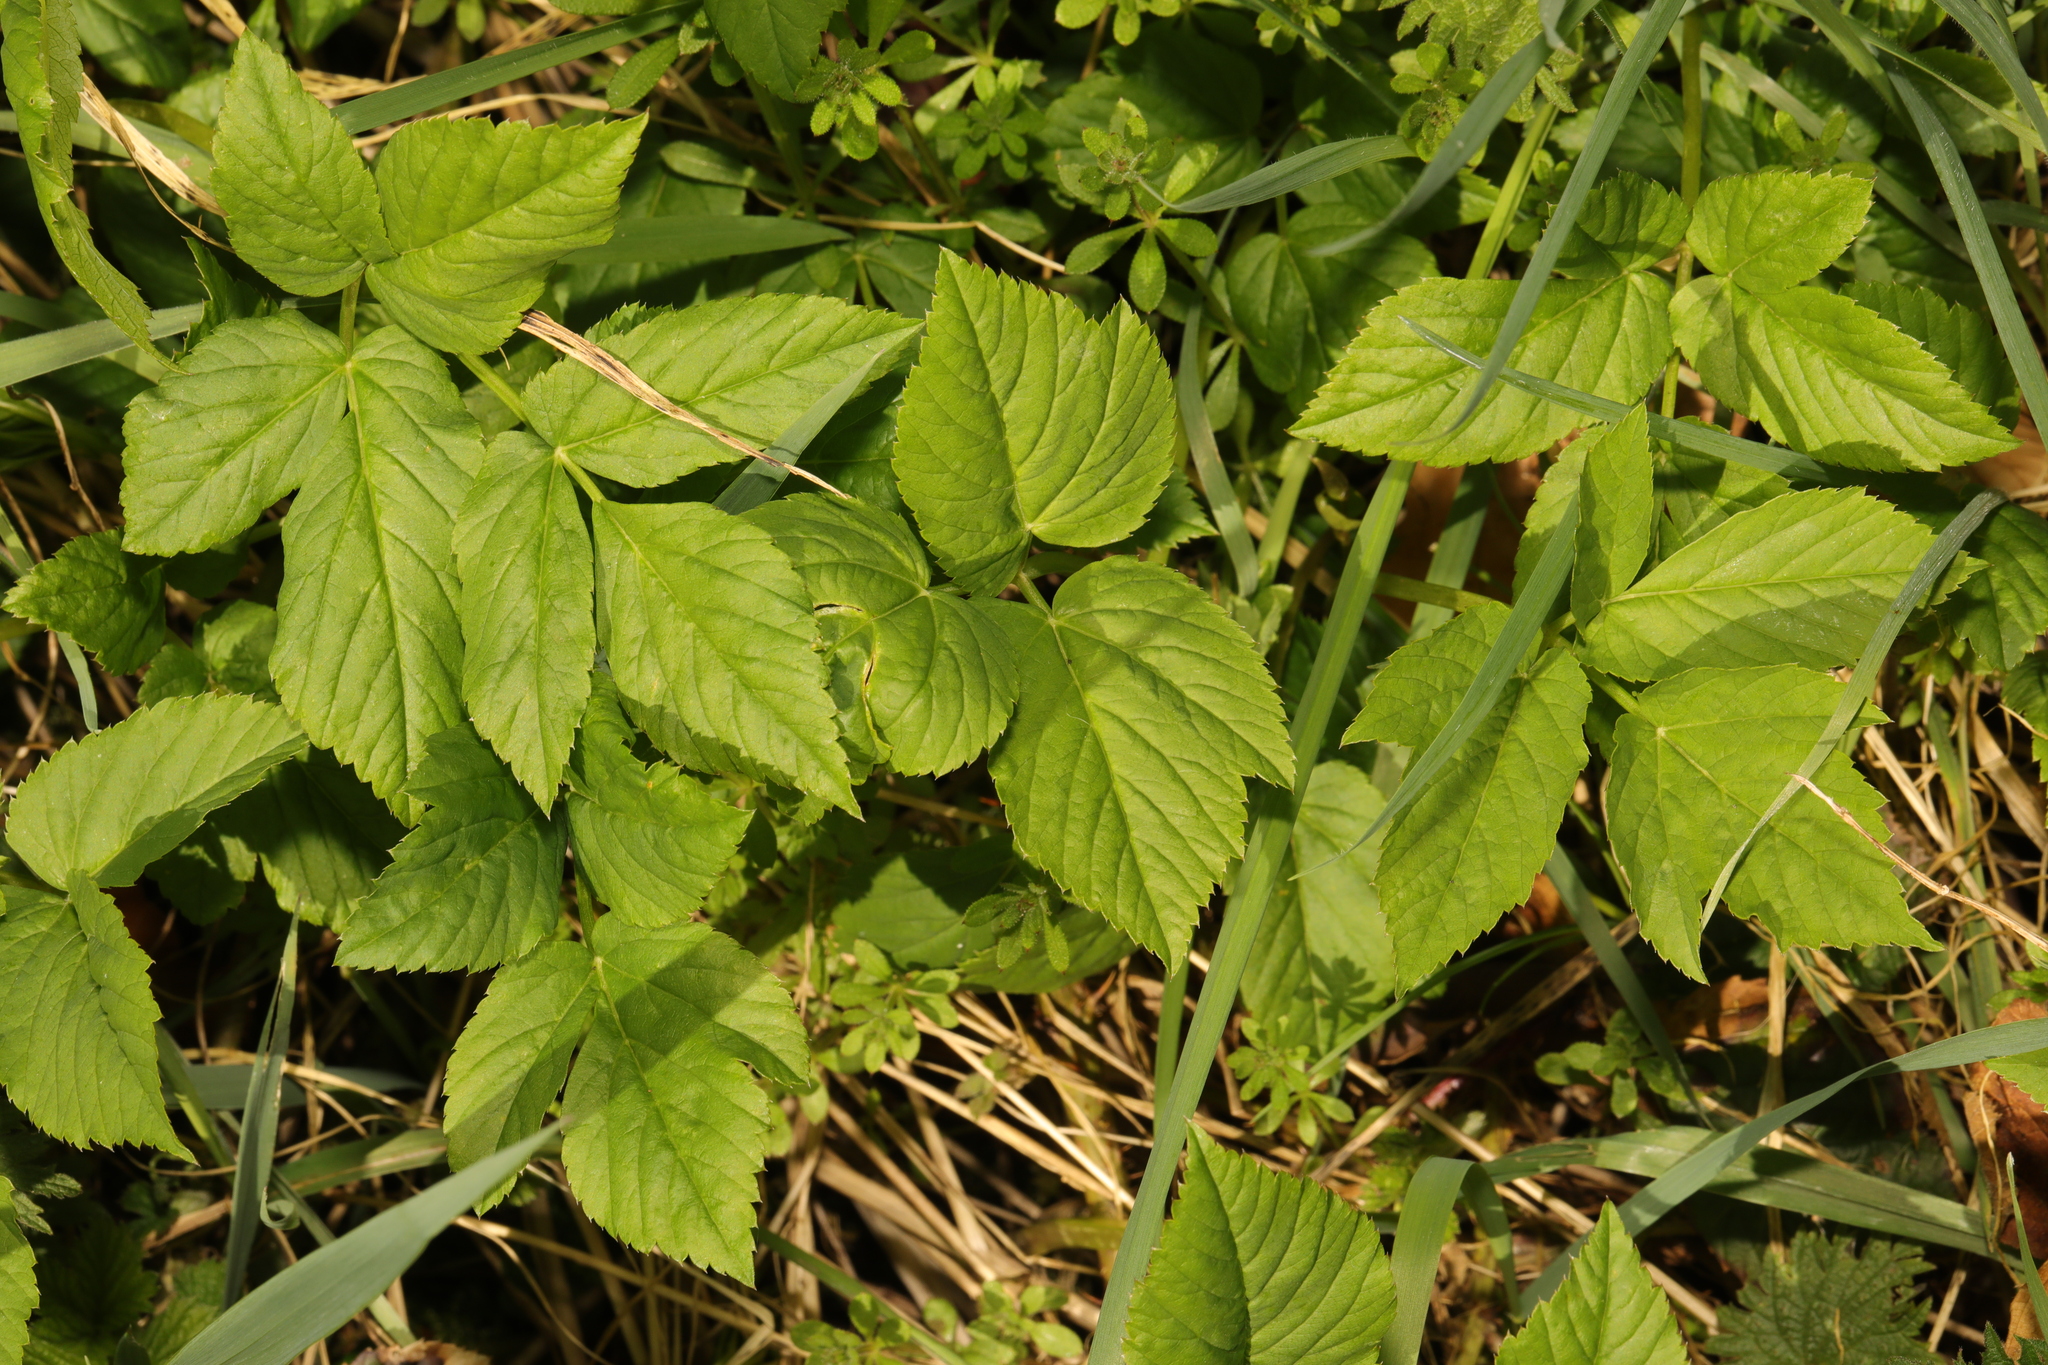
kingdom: Plantae
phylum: Tracheophyta
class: Magnoliopsida
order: Apiales
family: Apiaceae
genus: Aegopodium
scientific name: Aegopodium podagraria
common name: Ground-elder
